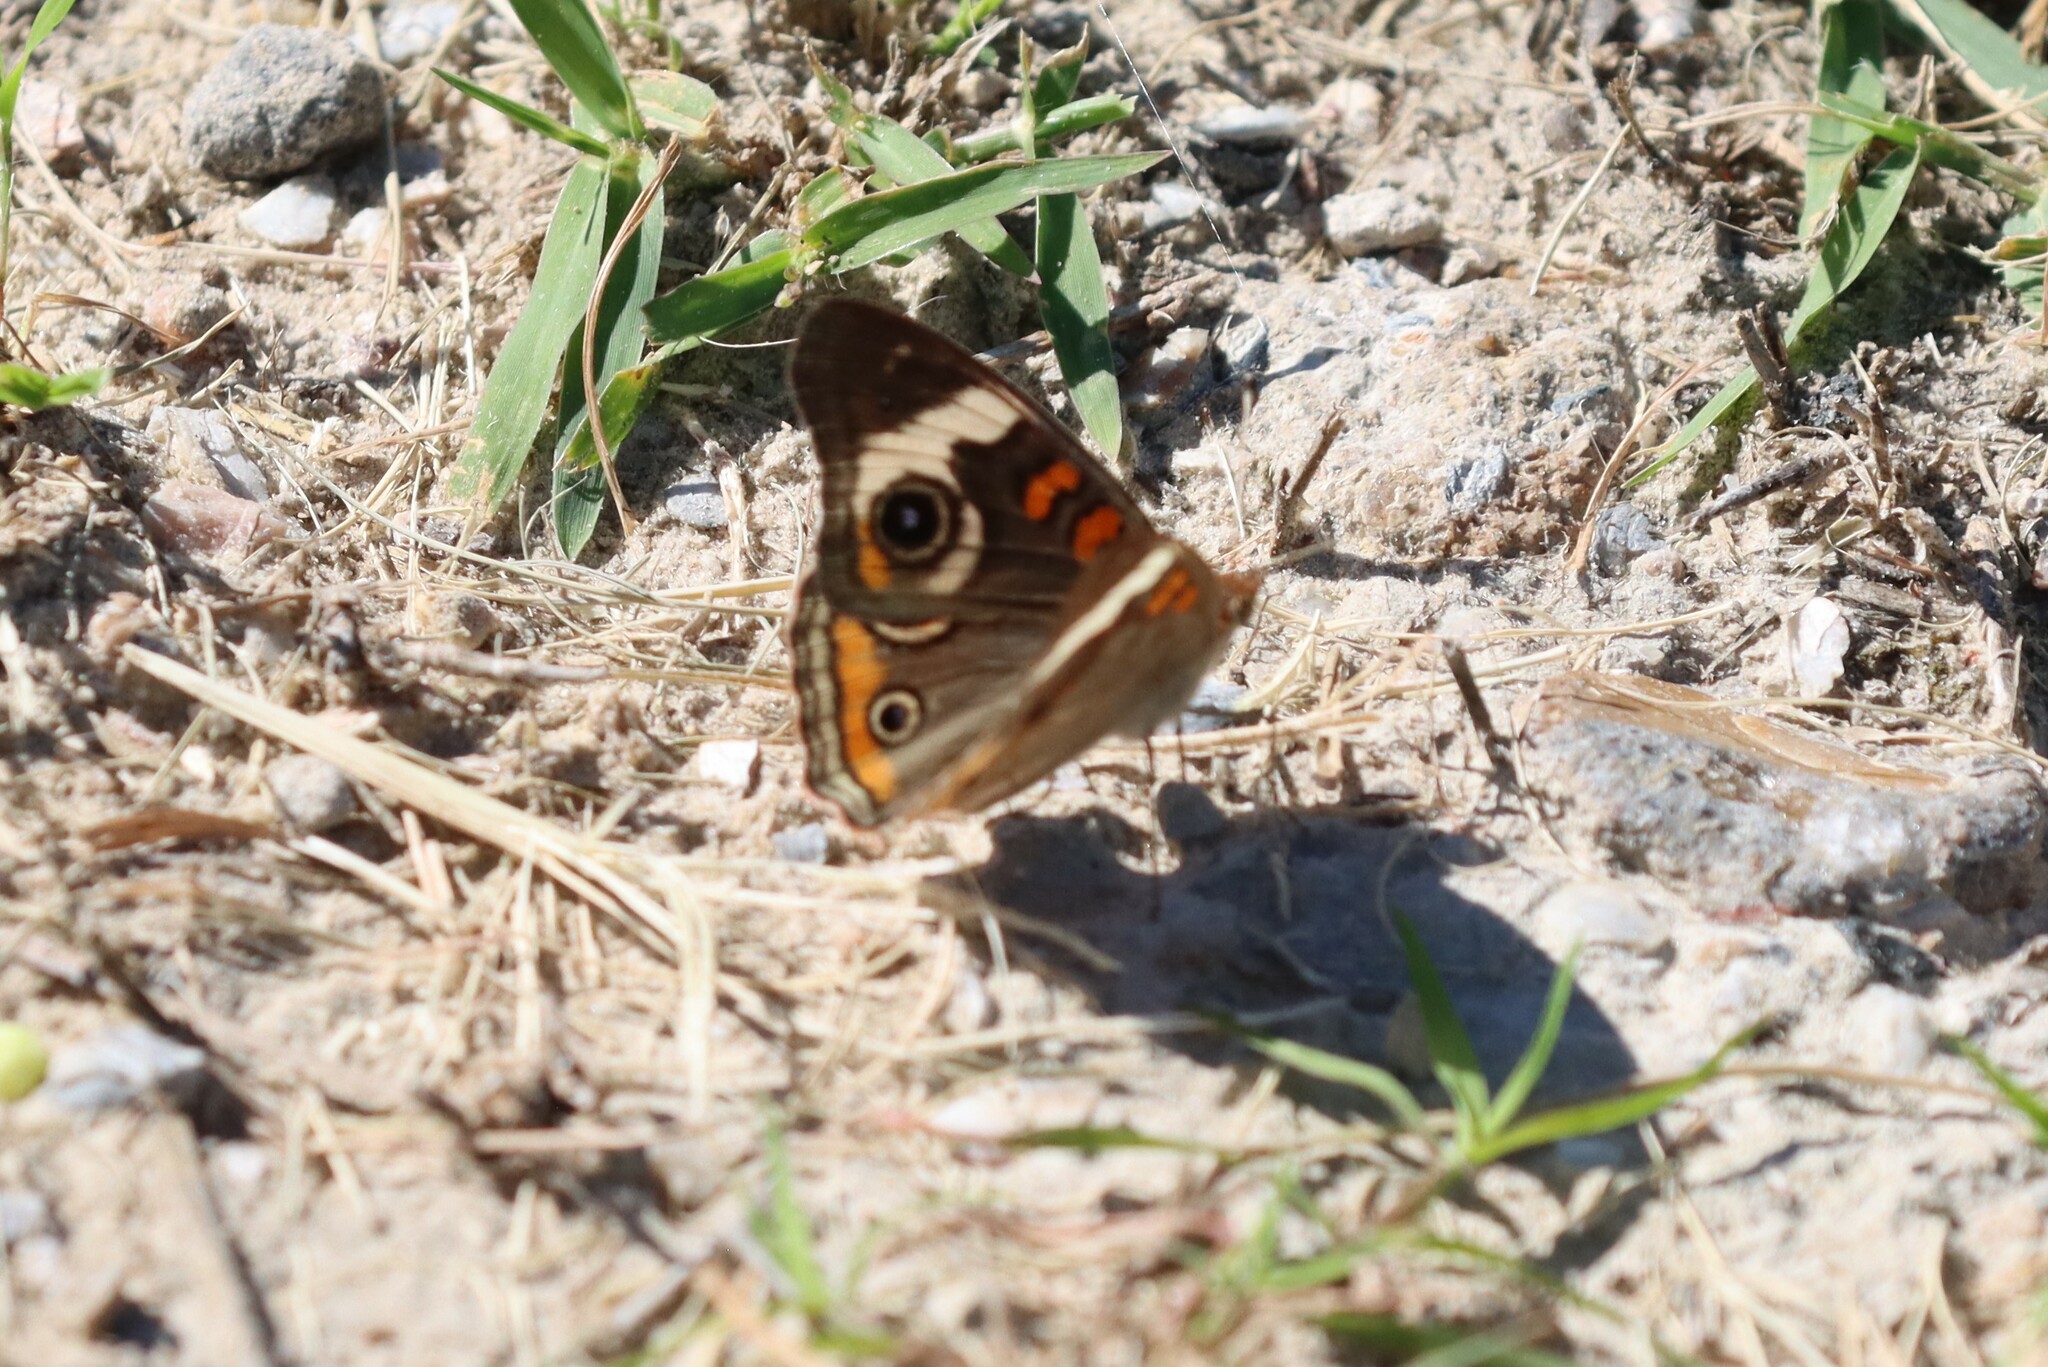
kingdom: Animalia
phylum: Arthropoda
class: Insecta
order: Lepidoptera
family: Nymphalidae
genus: Junonia
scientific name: Junonia coenia
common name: Common buckeye
